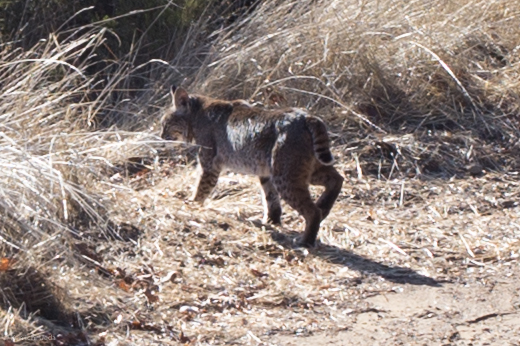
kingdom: Animalia
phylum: Chordata
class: Mammalia
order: Carnivora
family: Felidae
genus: Lynx
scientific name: Lynx rufus
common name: Bobcat
